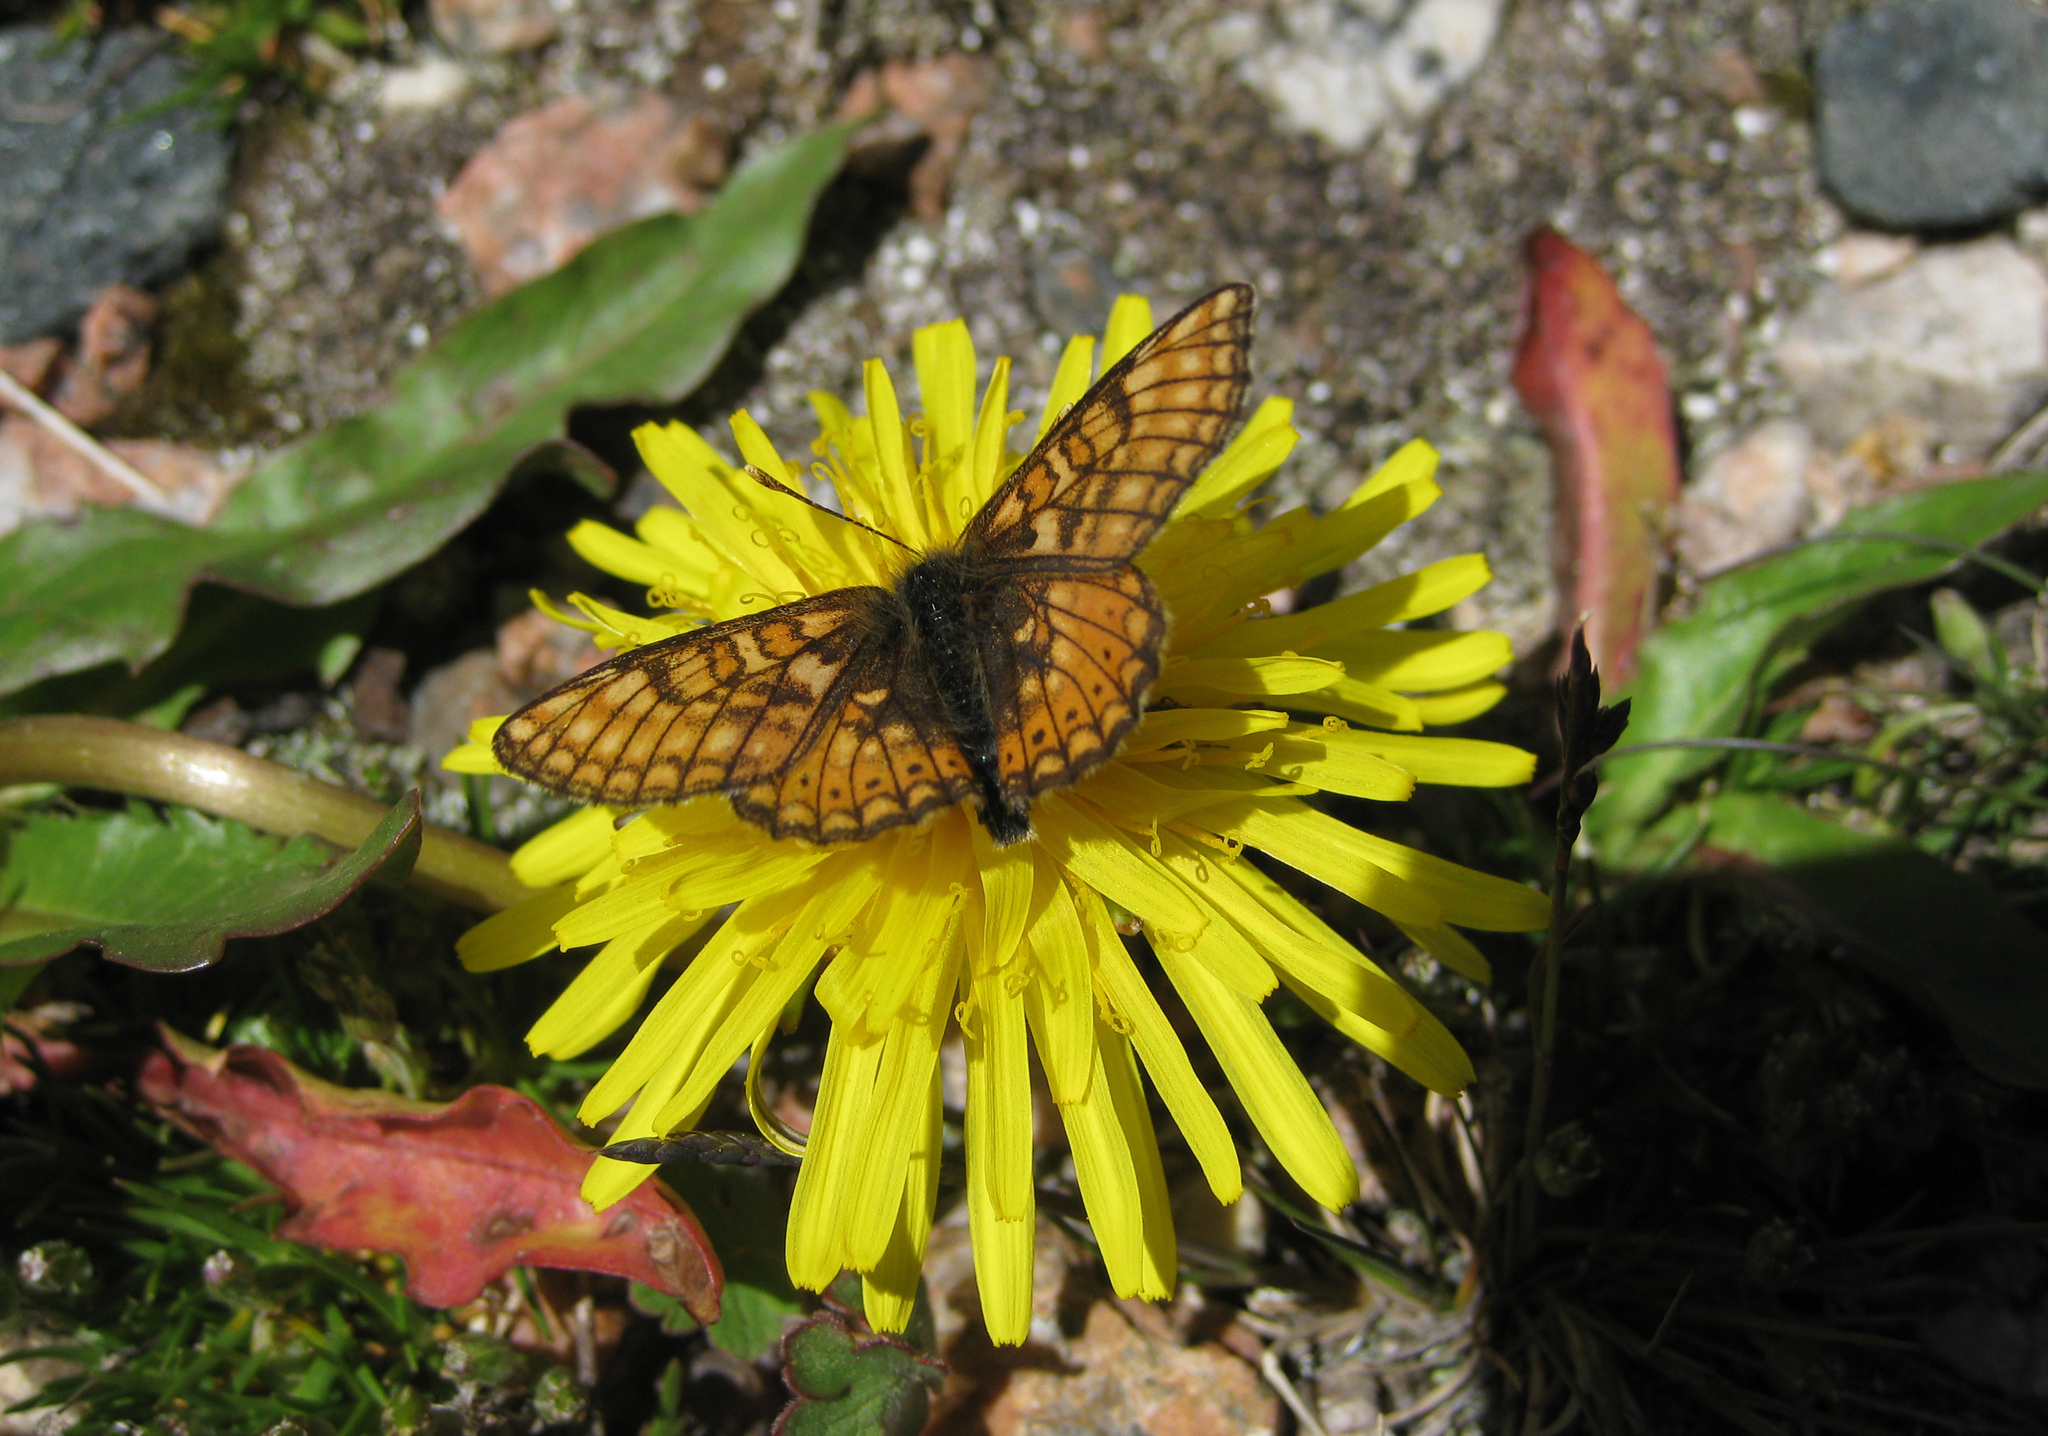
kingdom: Animalia
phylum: Arthropoda
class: Insecta
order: Lepidoptera
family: Nymphalidae
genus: Euphydryas
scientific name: Euphydryas asiatica
